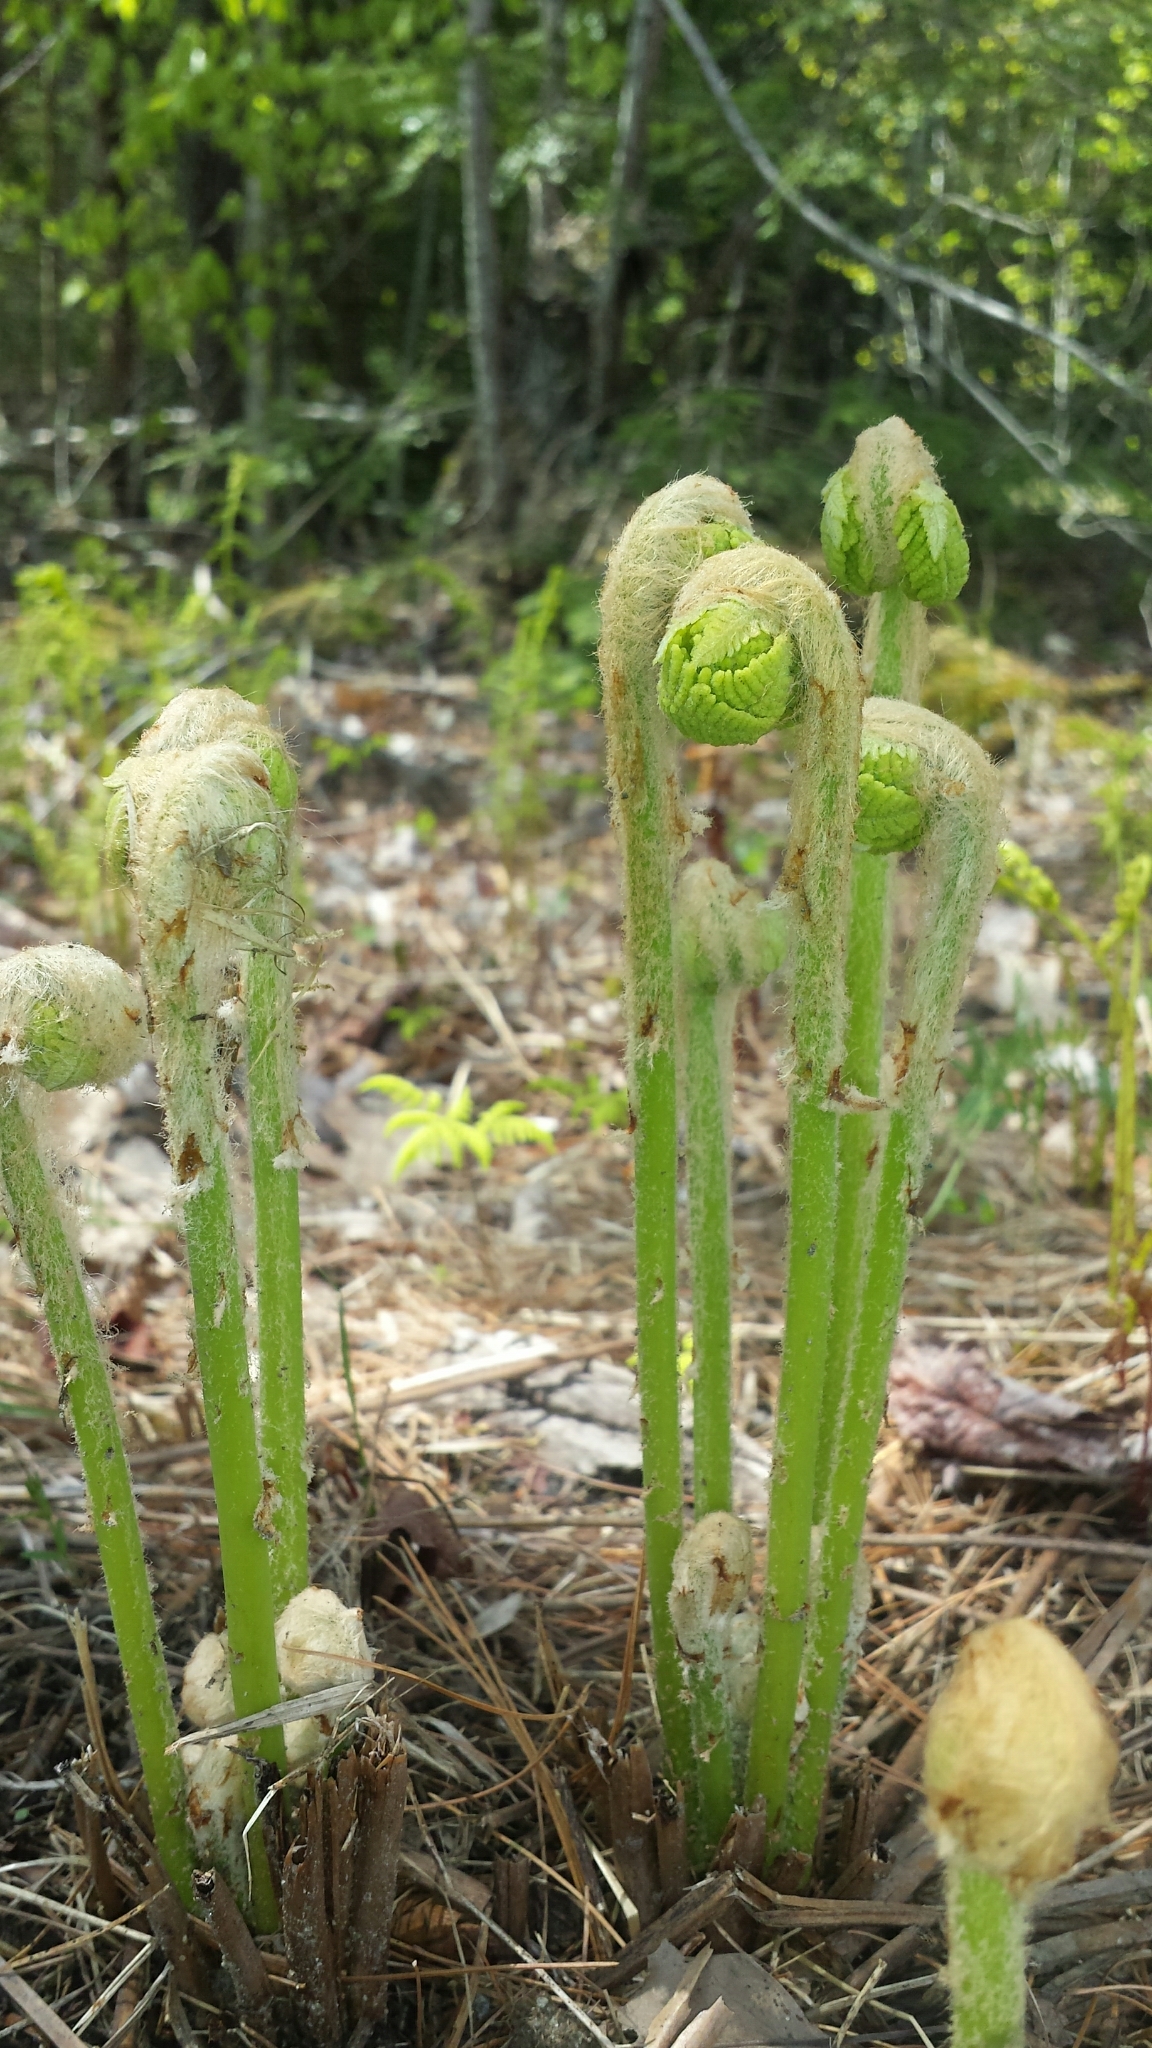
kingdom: Plantae
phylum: Tracheophyta
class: Polypodiopsida
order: Osmundales
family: Osmundaceae
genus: Osmundastrum
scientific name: Osmundastrum cinnamomeum
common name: Cinnamon fern
